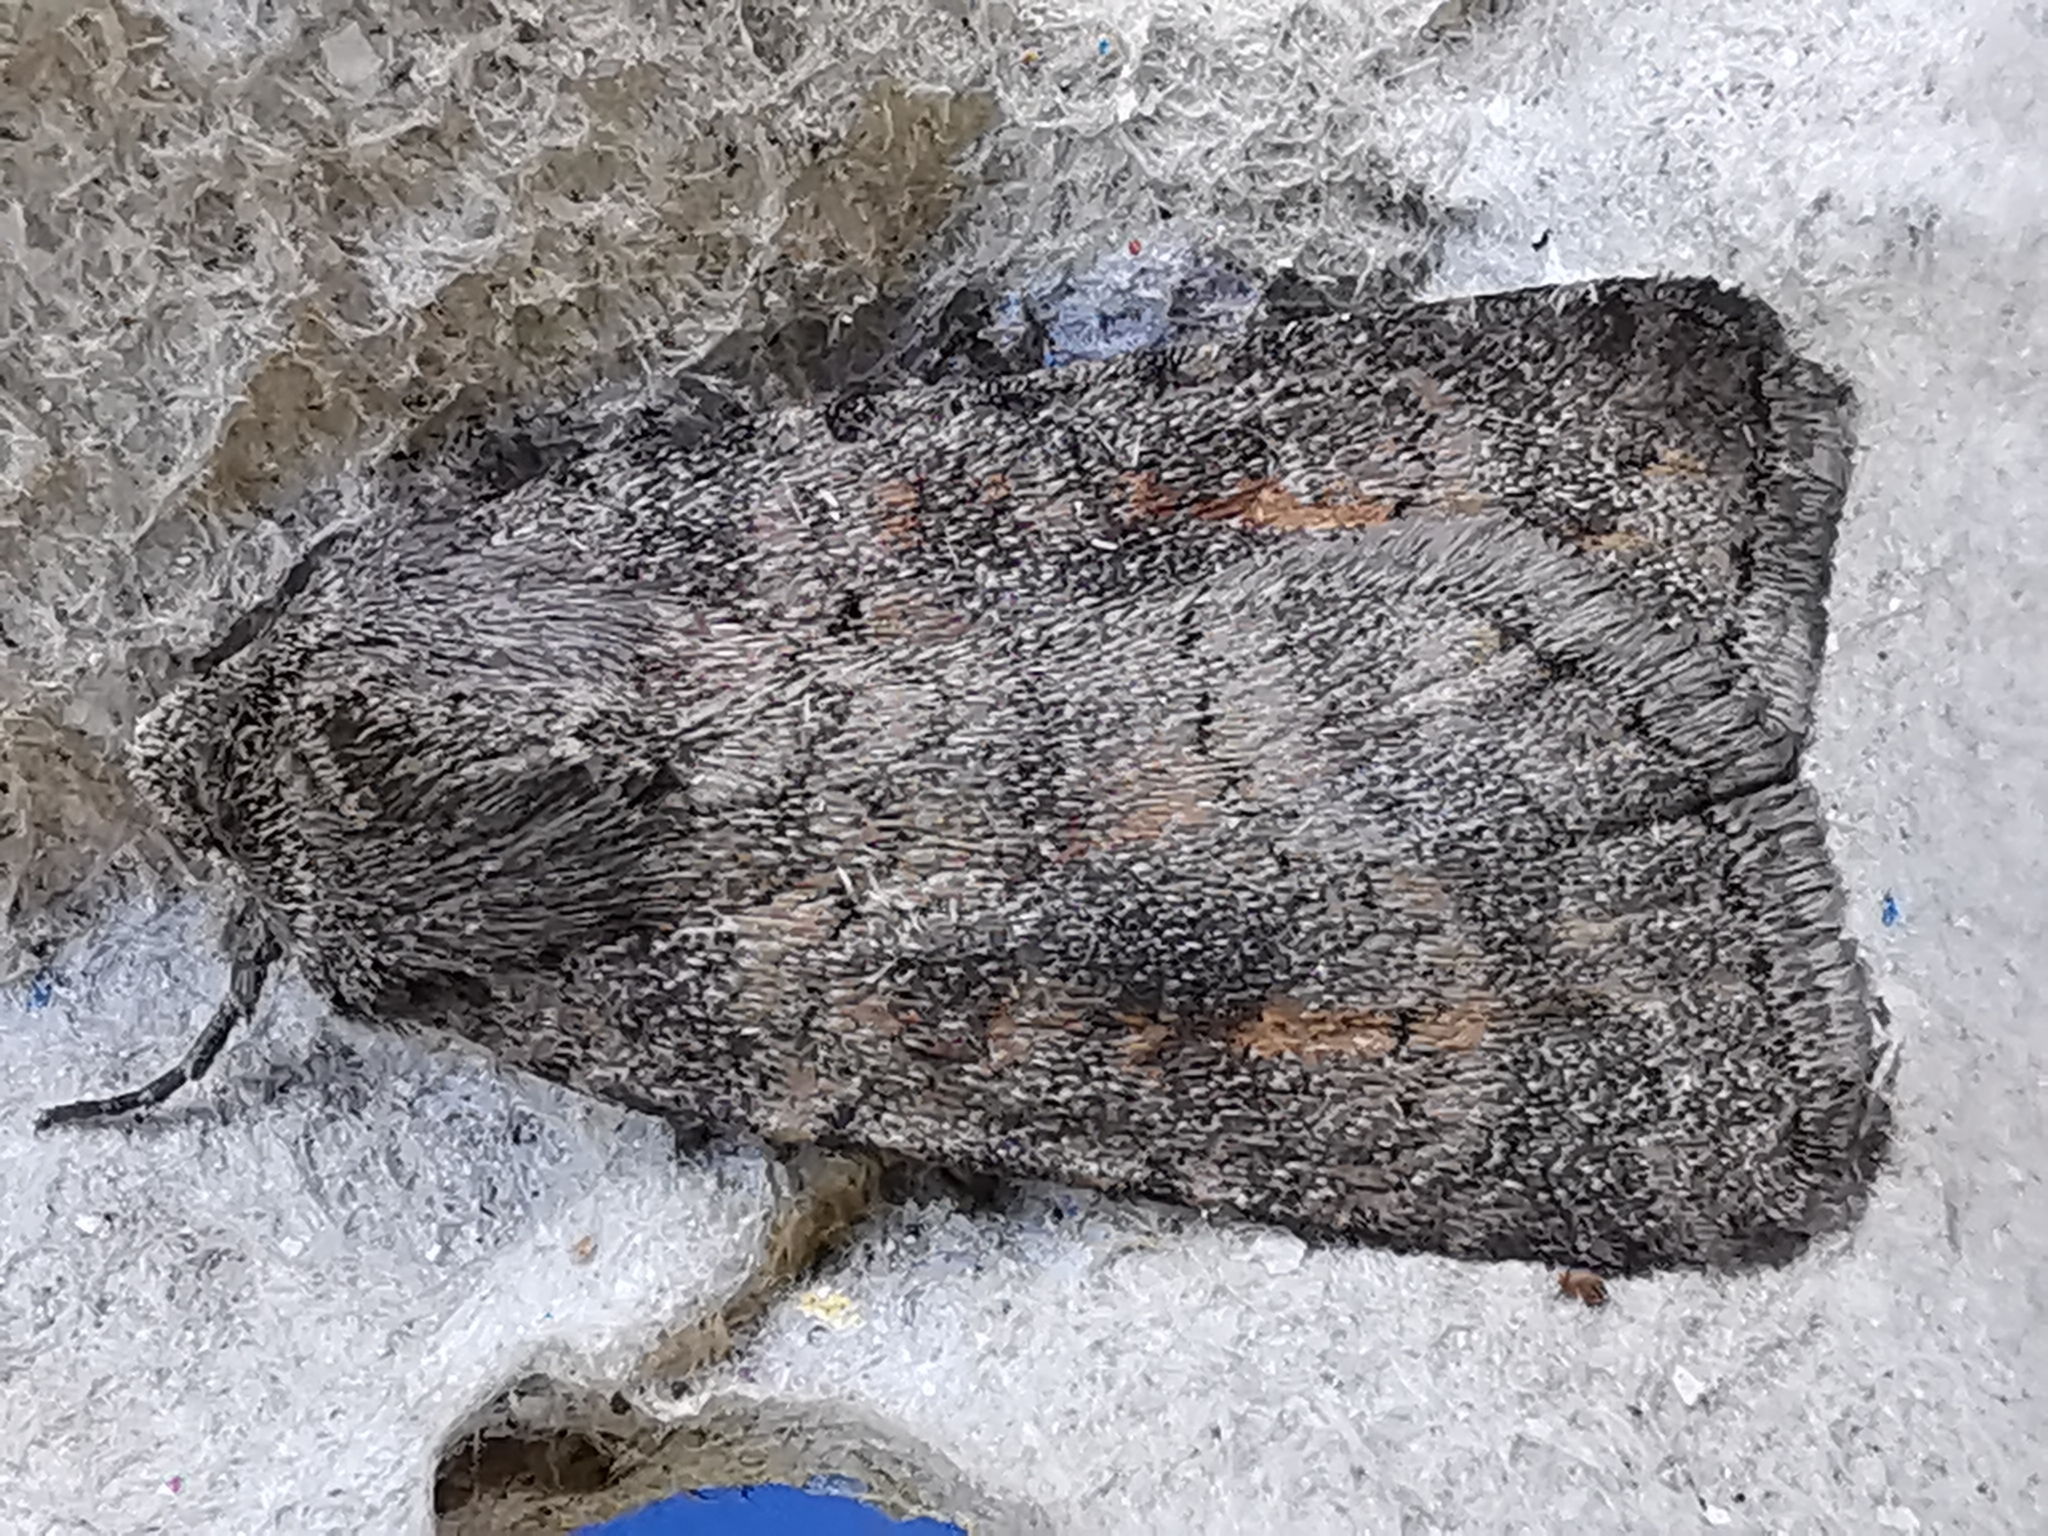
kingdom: Animalia
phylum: Arthropoda
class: Insecta
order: Lepidoptera
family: Noctuidae
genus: Caradrina
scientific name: Caradrina morpheus
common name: Mottled rustic
